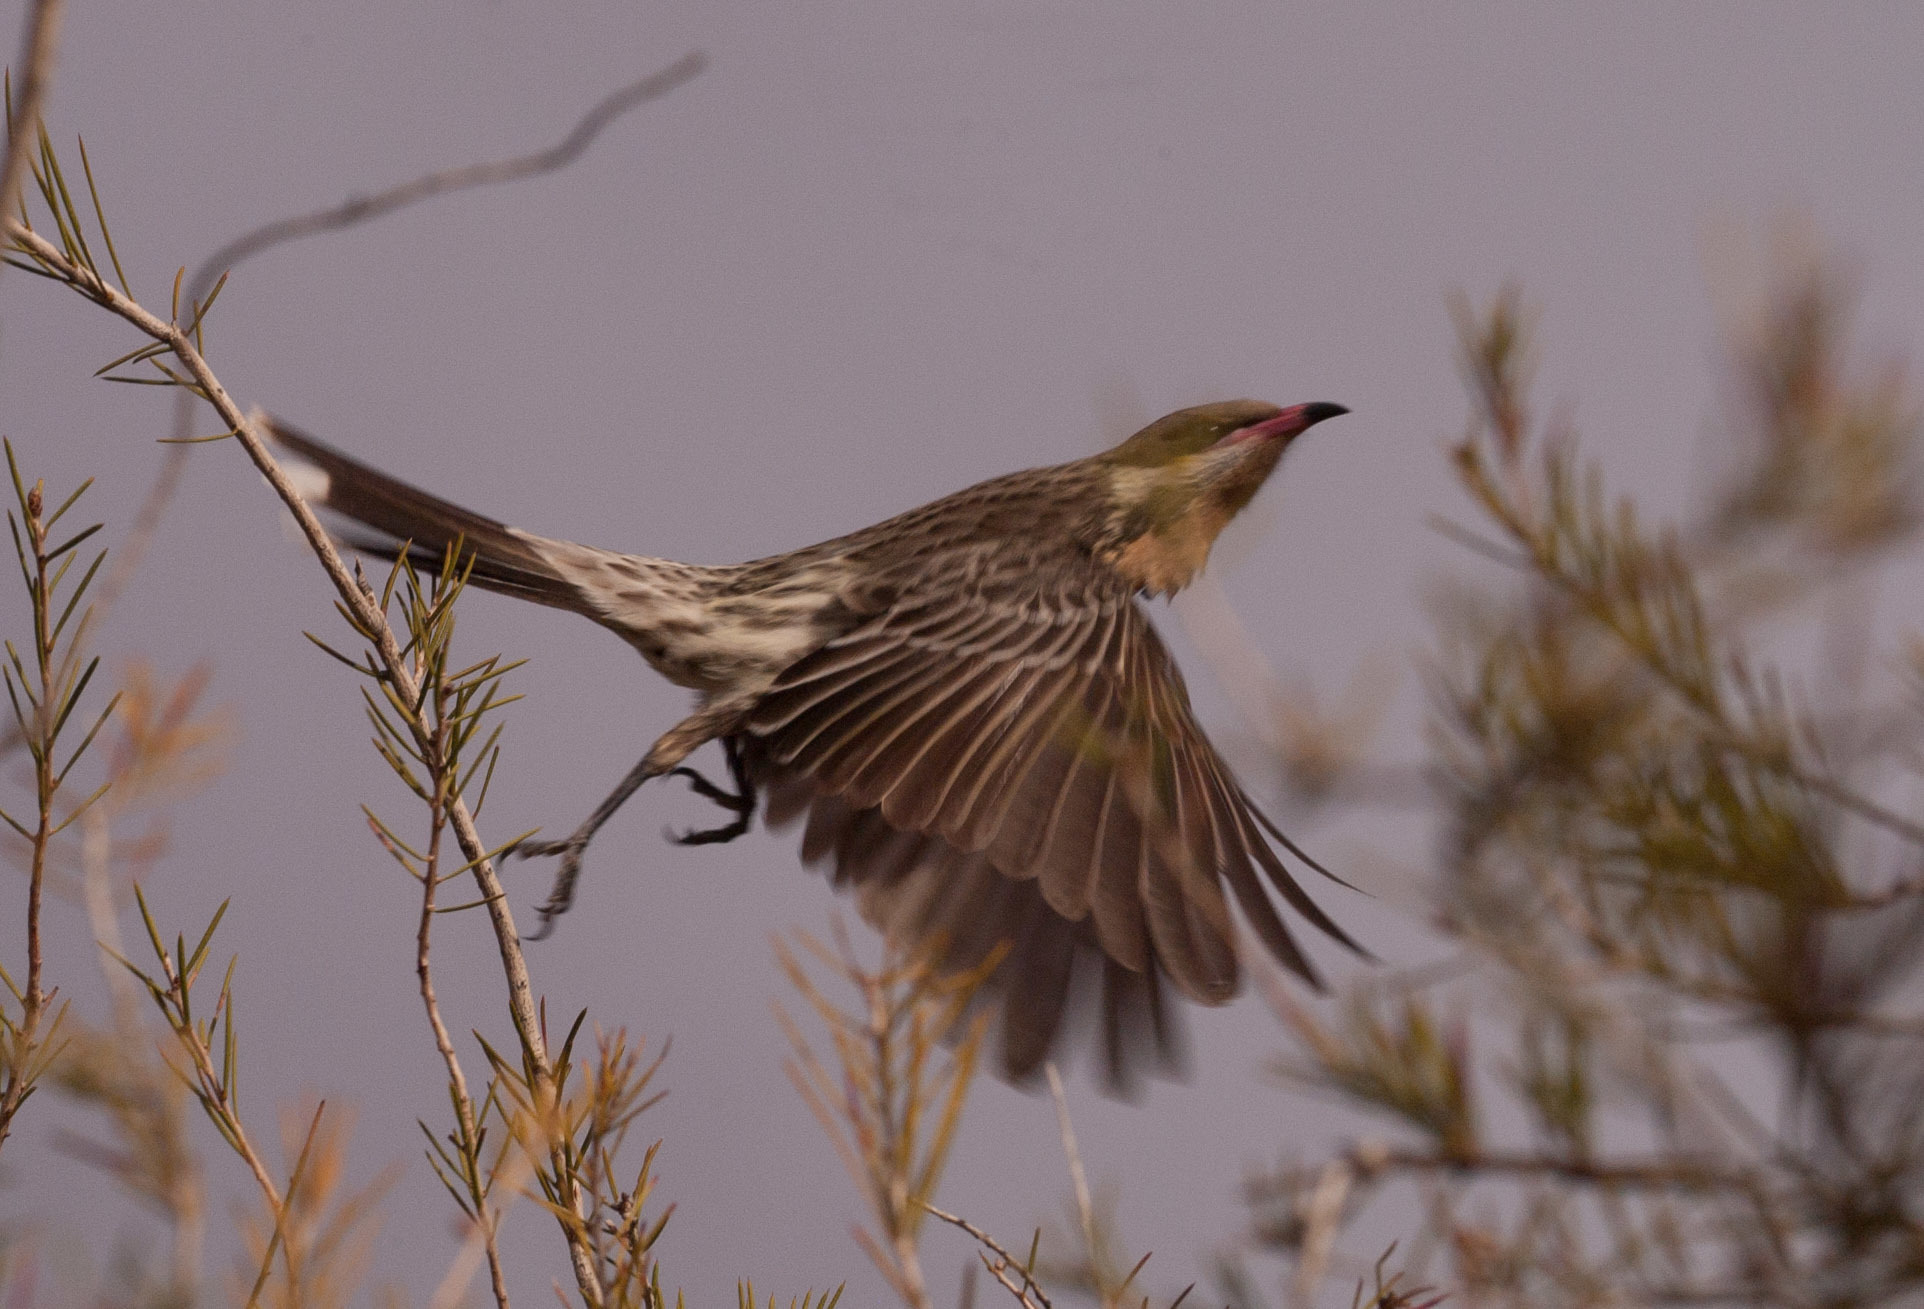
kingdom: Animalia
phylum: Chordata
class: Aves
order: Passeriformes
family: Meliphagidae
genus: Acanthagenys
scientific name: Acanthagenys rufogularis
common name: Spiny-cheeked honeyeater
